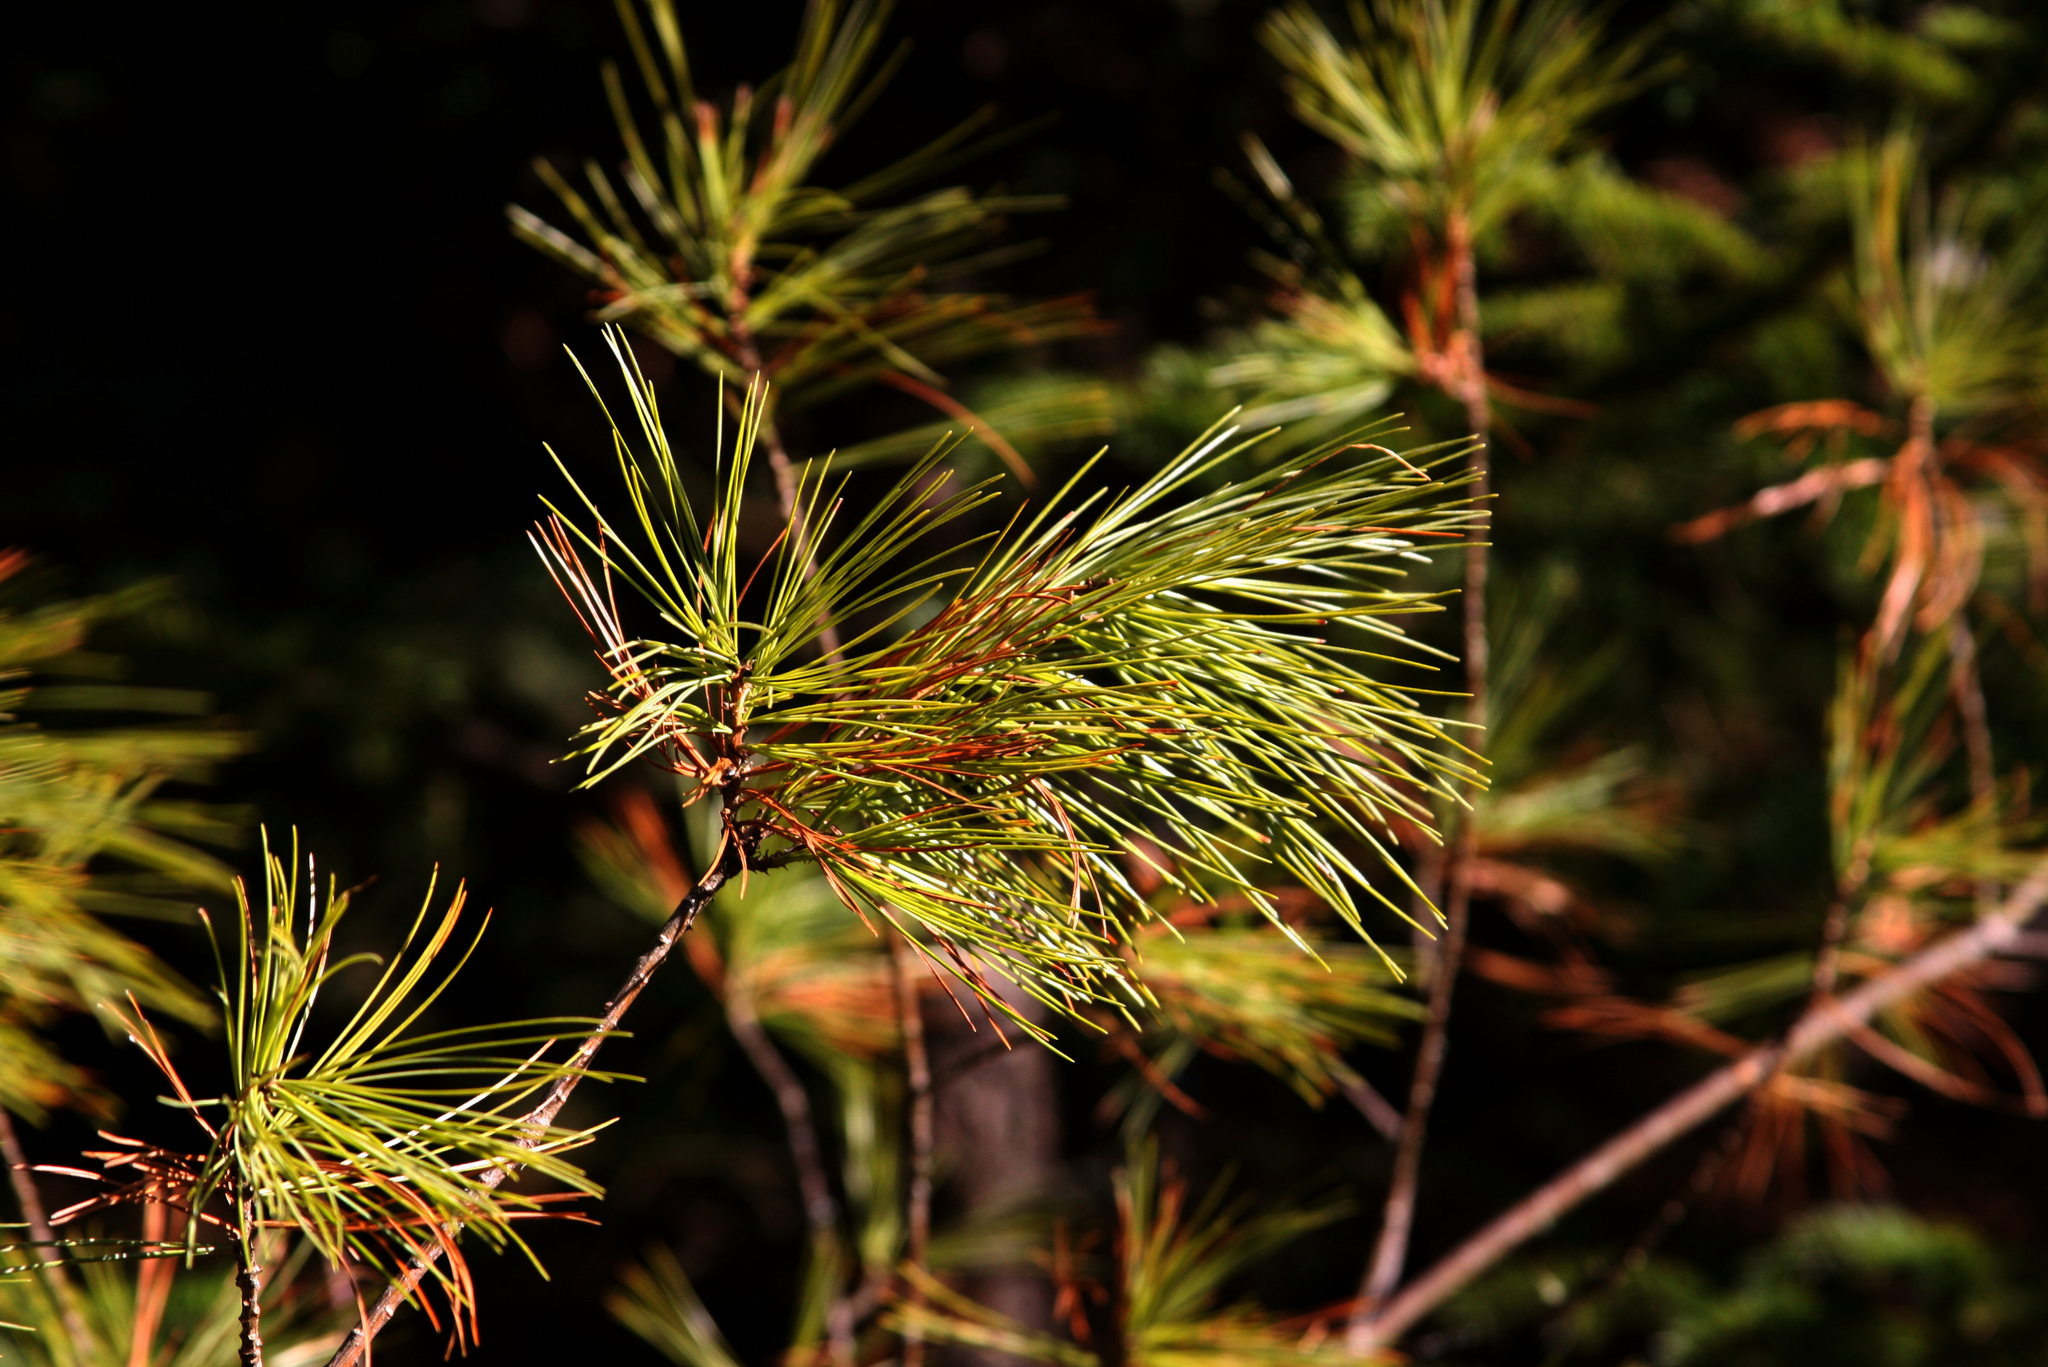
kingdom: Plantae
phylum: Tracheophyta
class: Pinopsida
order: Pinales
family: Pinaceae
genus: Pinus
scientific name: Pinus strobus
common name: Weymouth pine
